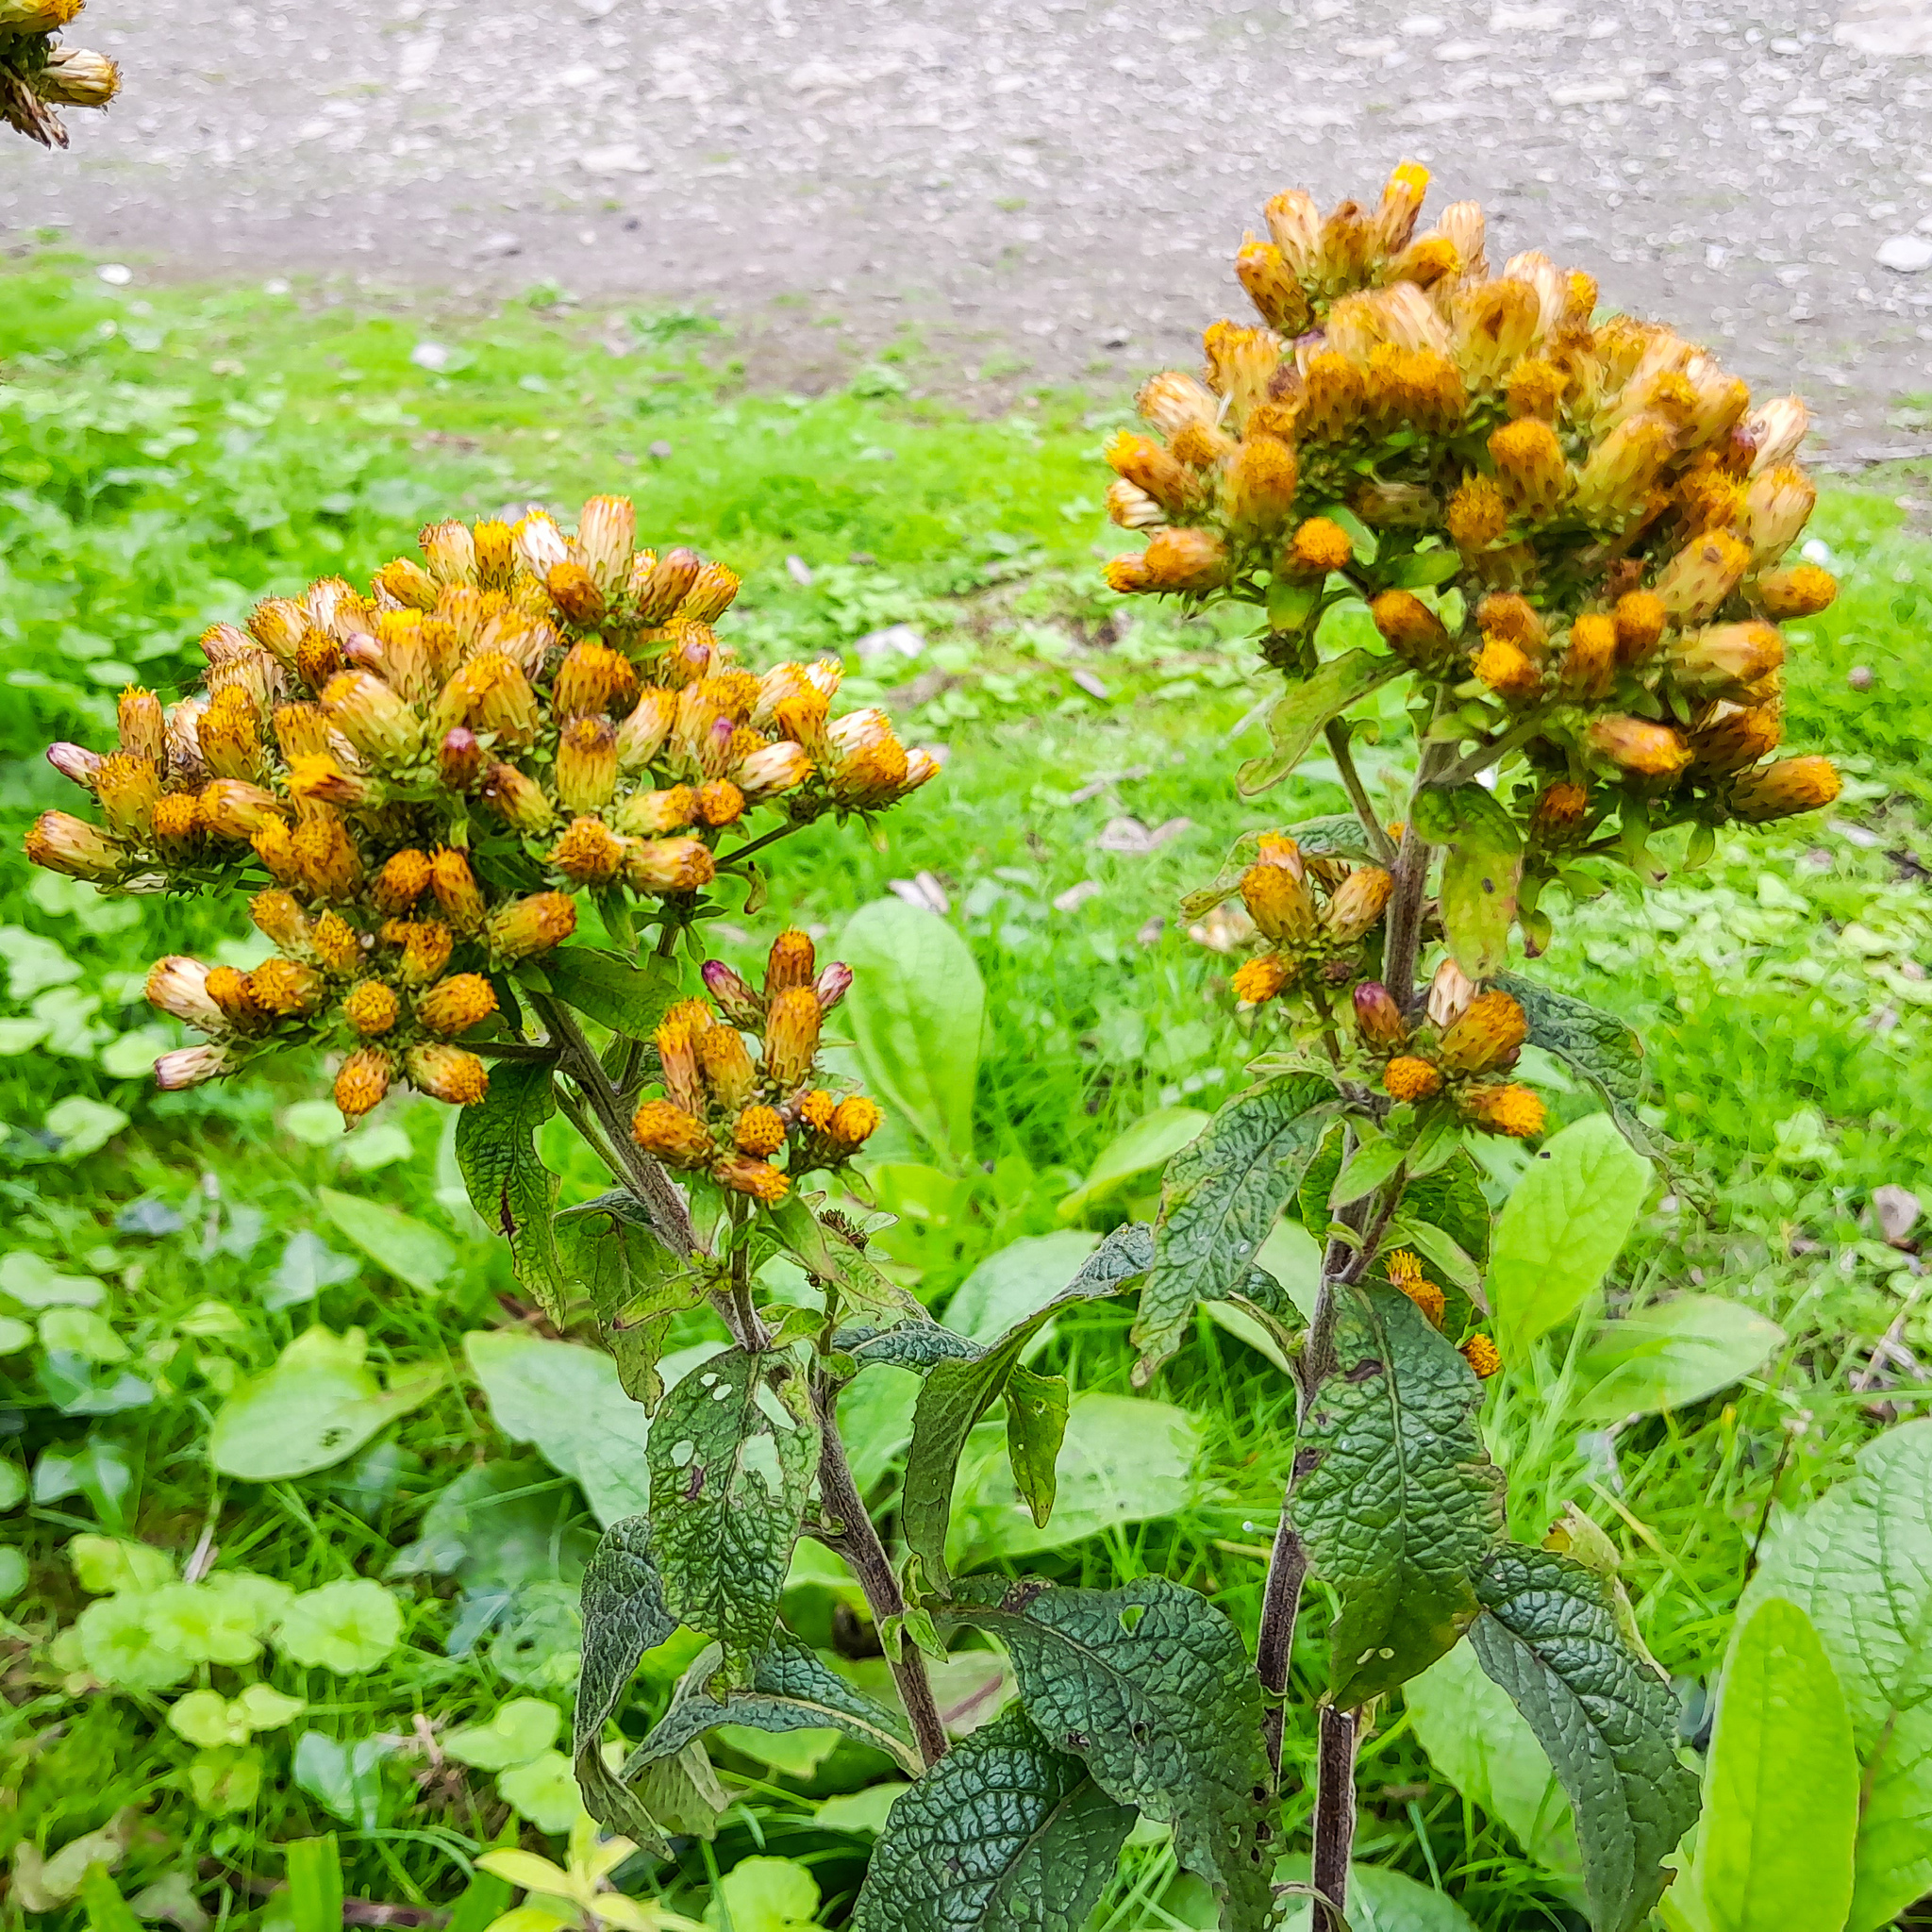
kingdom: Plantae
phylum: Tracheophyta
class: Magnoliopsida
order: Asterales
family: Asteraceae
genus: Pentanema
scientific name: Pentanema squarrosum
